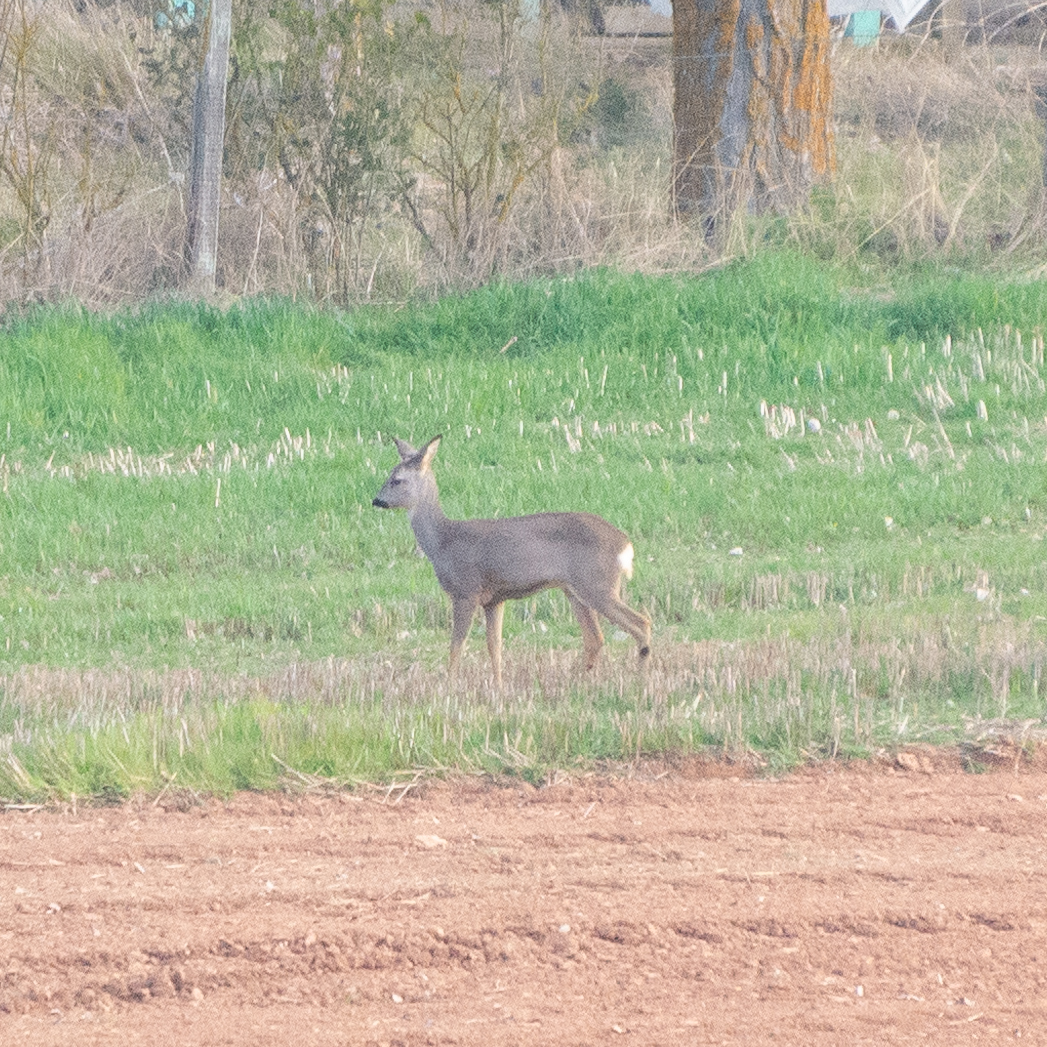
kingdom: Animalia
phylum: Chordata
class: Mammalia
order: Artiodactyla
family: Cervidae
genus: Capreolus
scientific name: Capreolus capreolus
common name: Western roe deer
